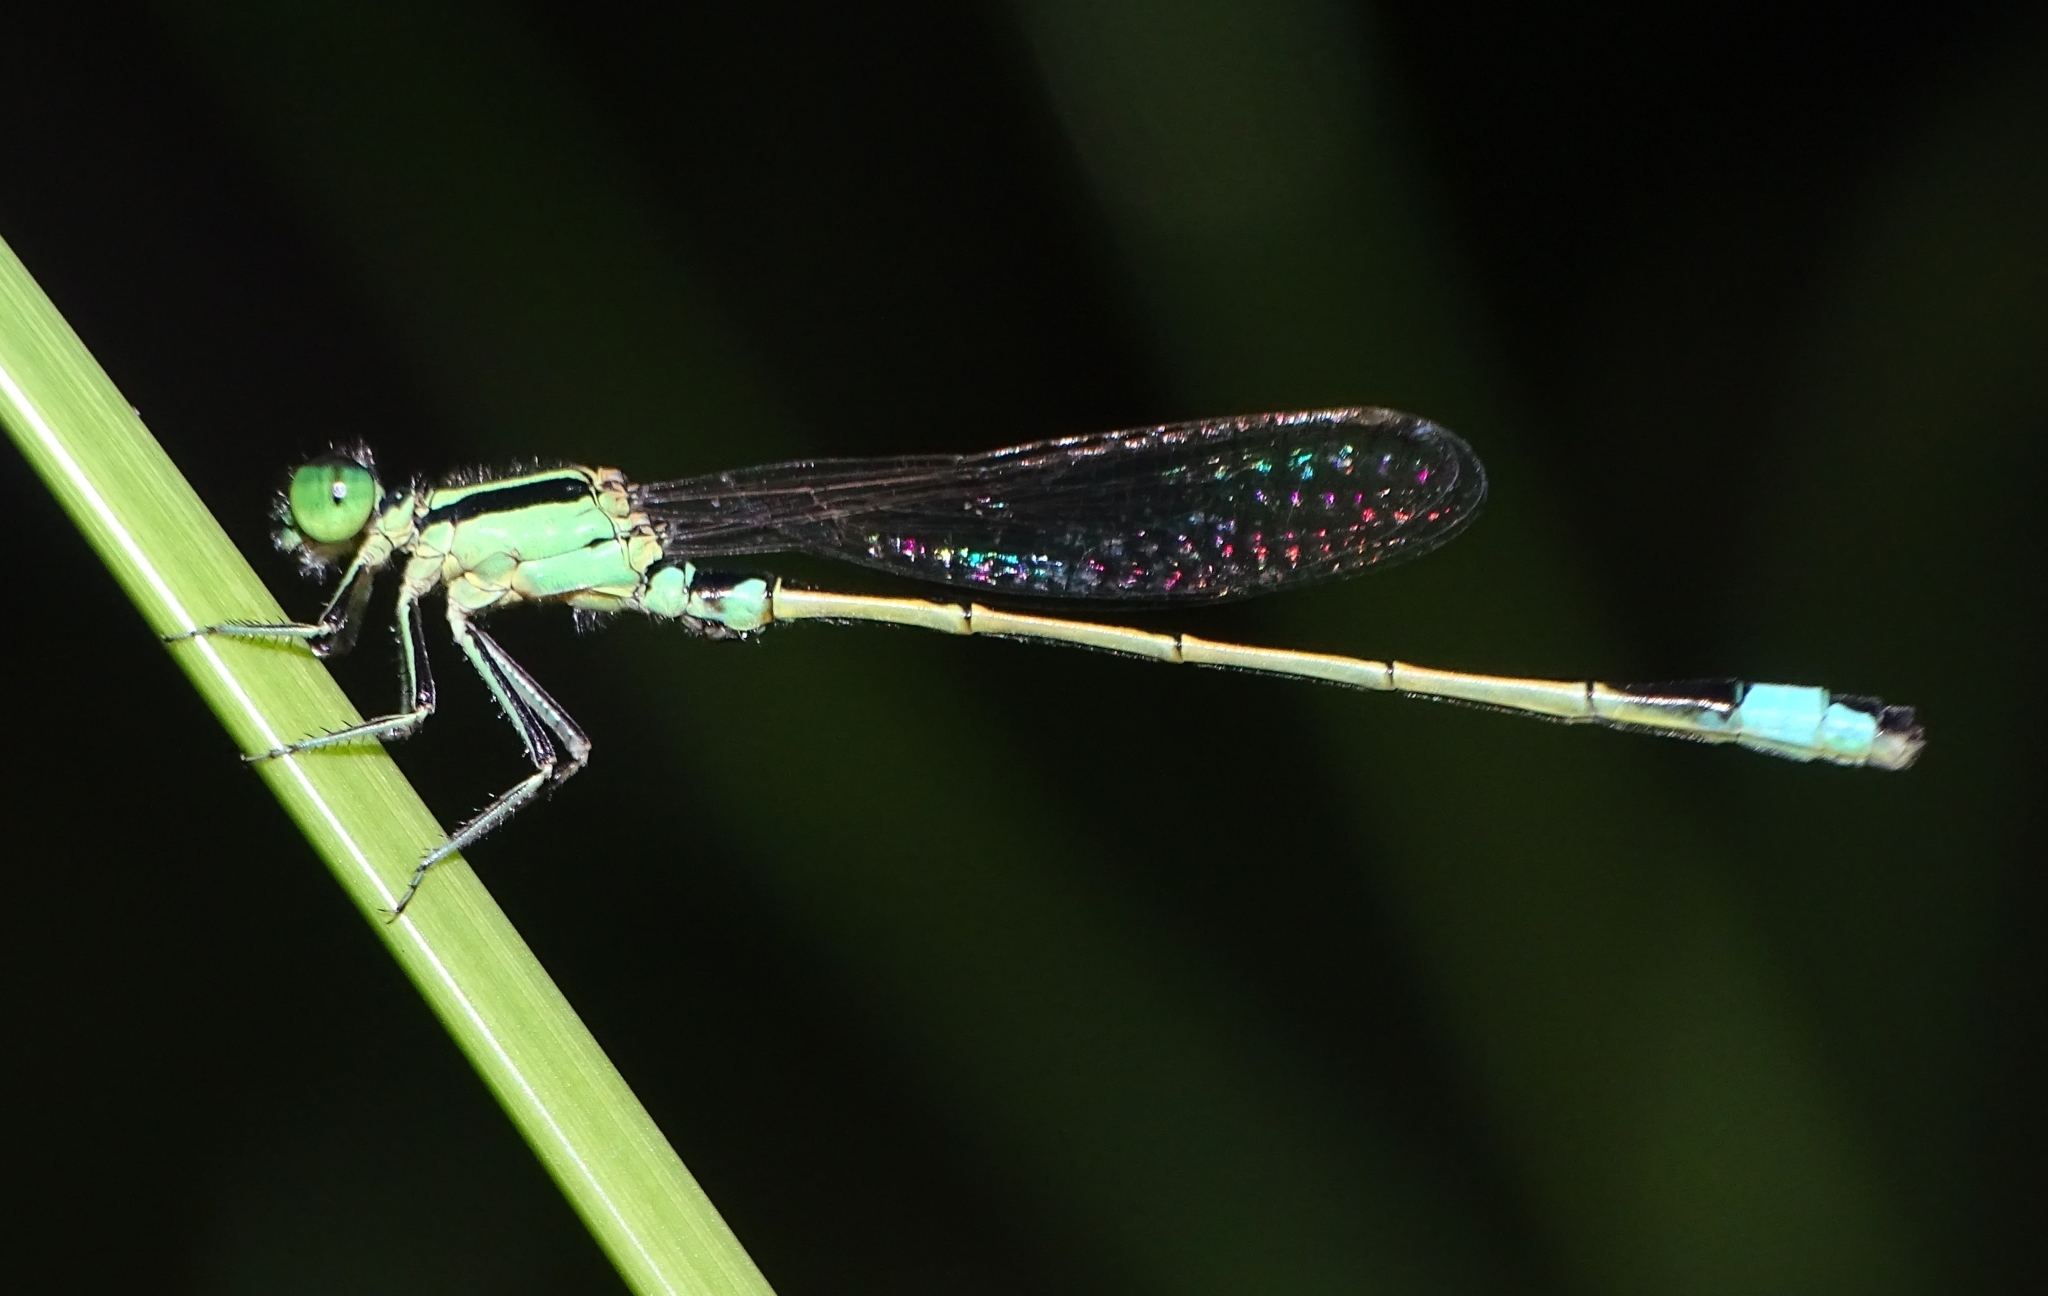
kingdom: Animalia
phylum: Arthropoda
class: Insecta
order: Odonata
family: Coenagrionidae
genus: Ischnura
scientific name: Ischnura senegalensis
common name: Tropical bluetail
